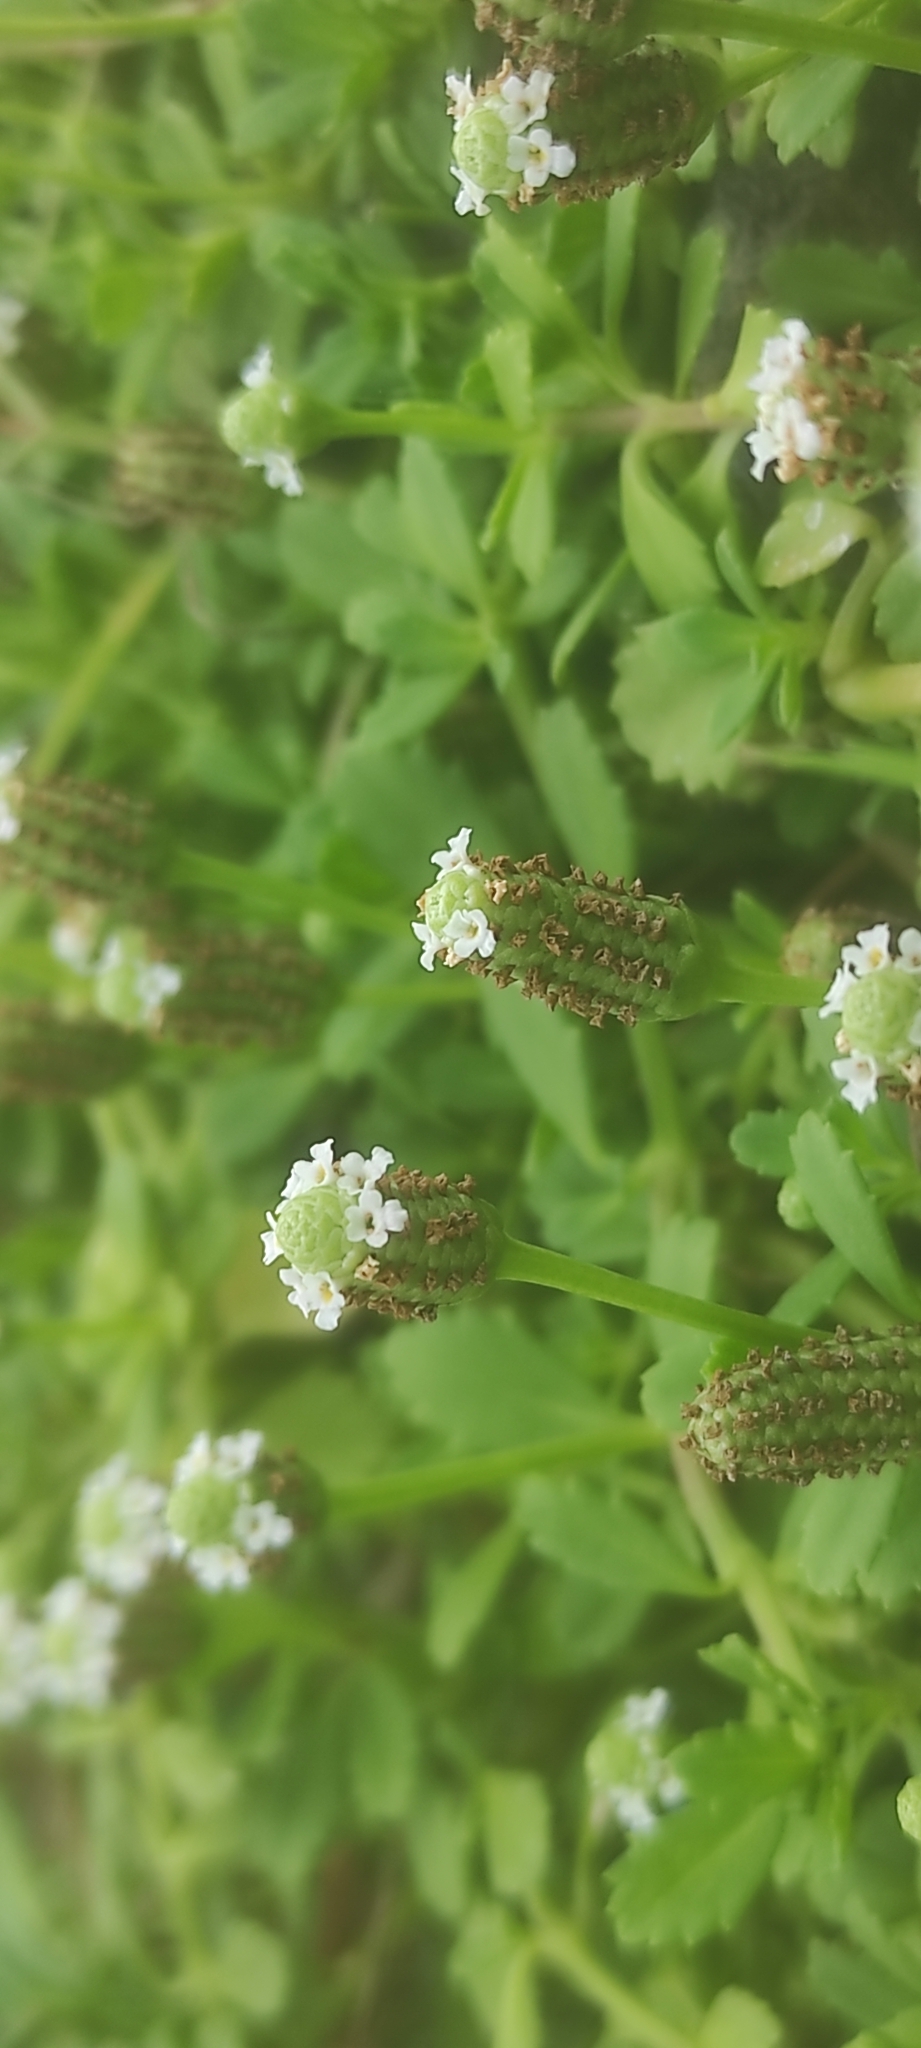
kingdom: Plantae
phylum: Tracheophyta
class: Magnoliopsida
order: Lamiales
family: Verbenaceae
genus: Phyla
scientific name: Phyla nodiflora
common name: Frogfruit
